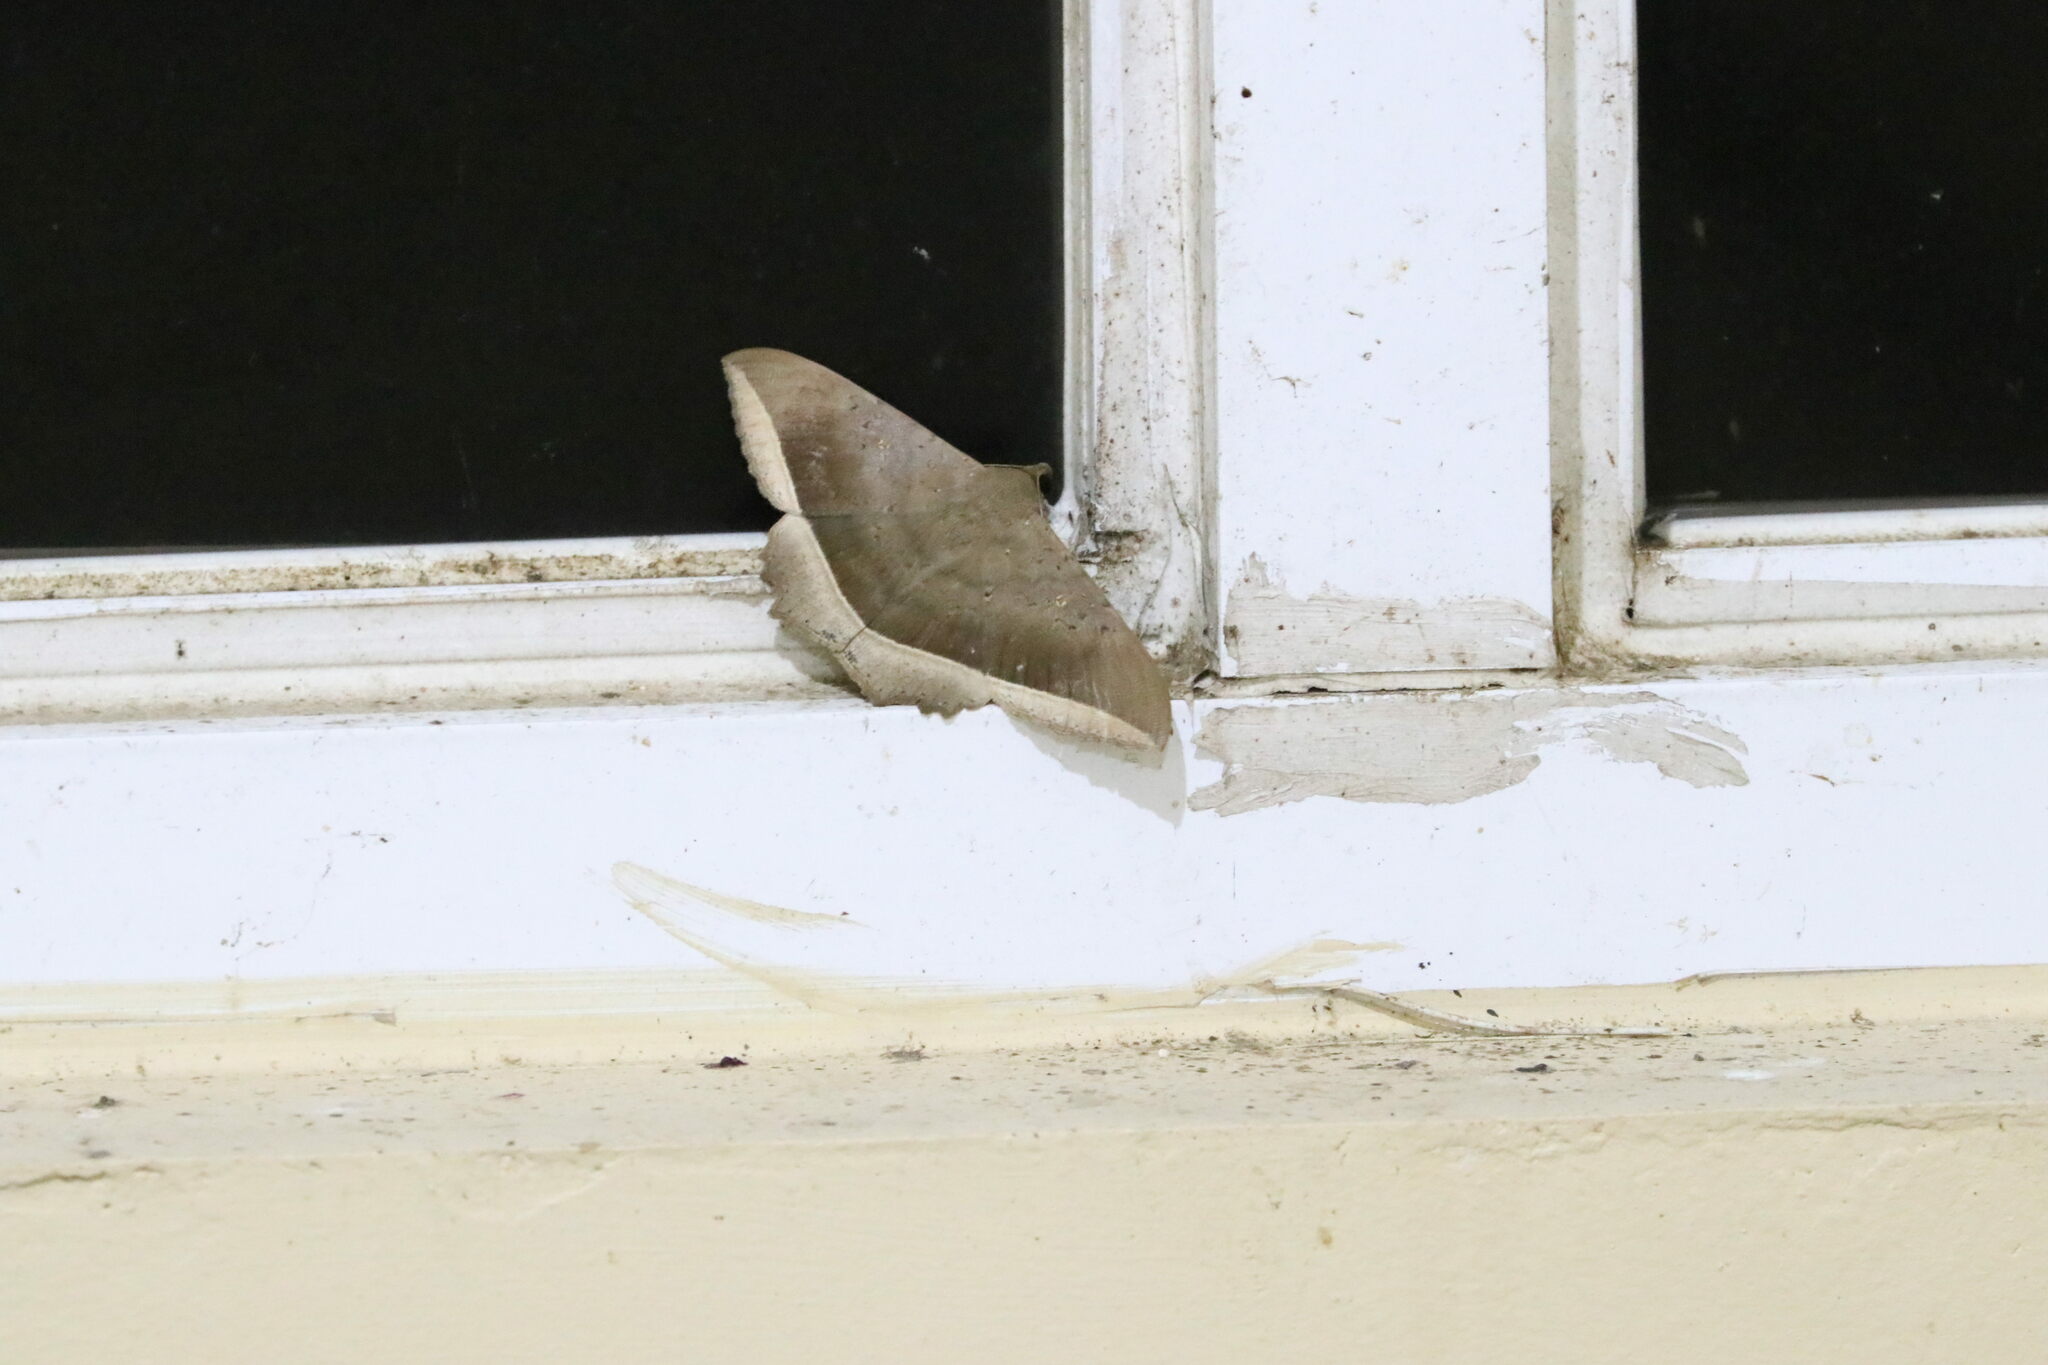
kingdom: Animalia
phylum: Arthropoda
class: Insecta
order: Lepidoptera
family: Erebidae
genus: Hulodes
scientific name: Hulodes caranea
